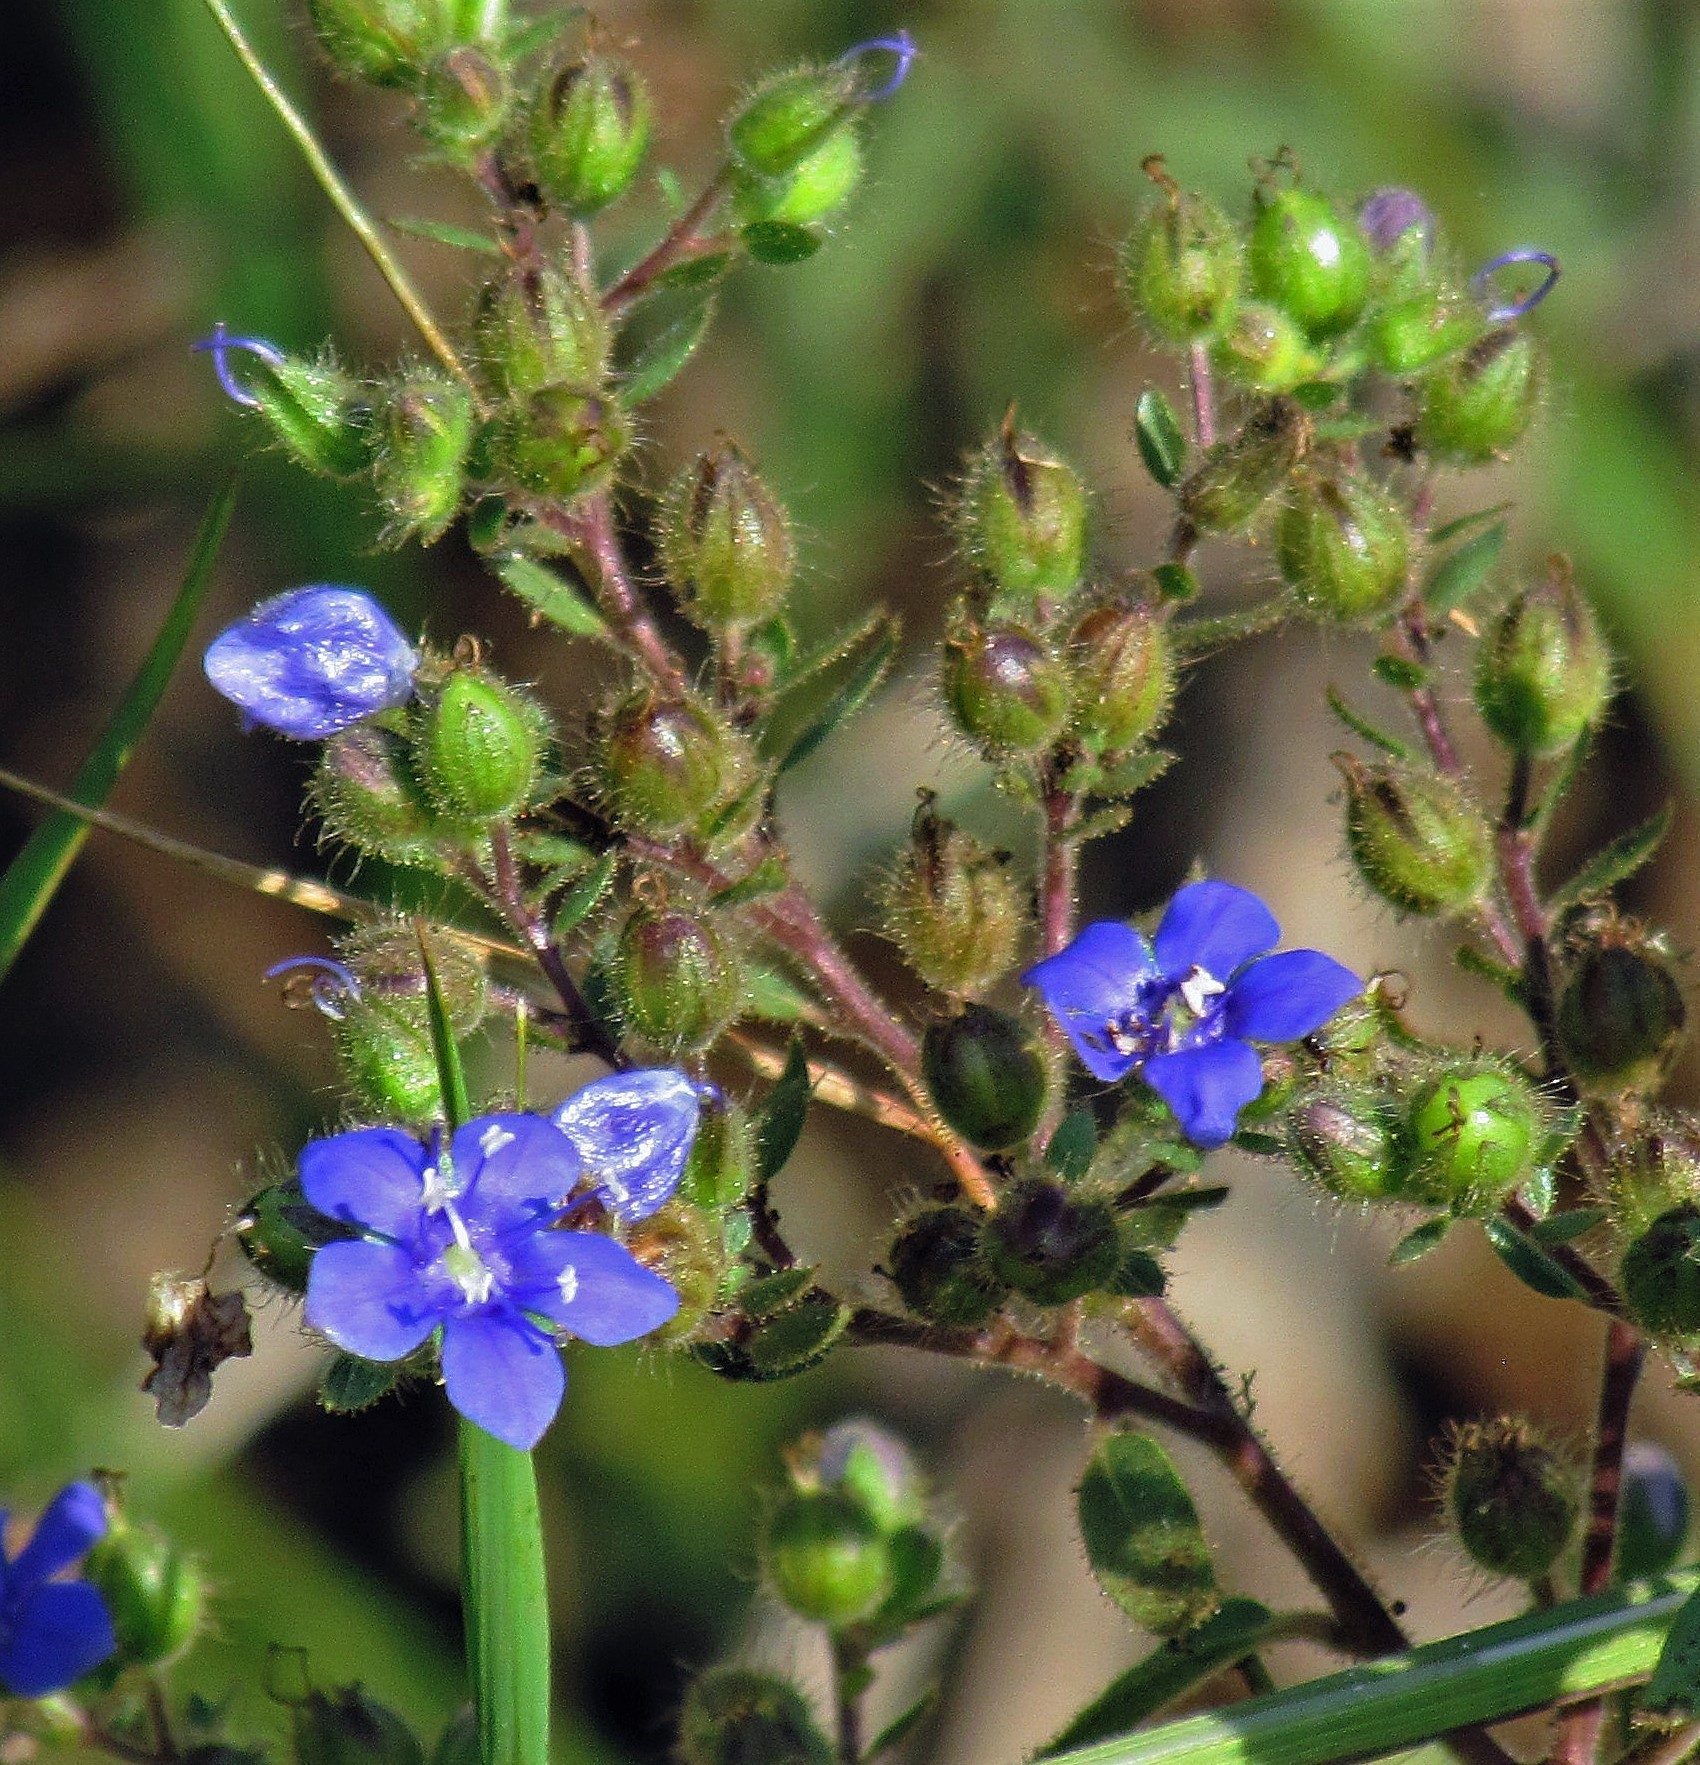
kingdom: Plantae
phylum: Tracheophyta
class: Magnoliopsida
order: Solanales
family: Hydroleaceae
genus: Hydrolea
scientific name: Hydrolea spinosa
